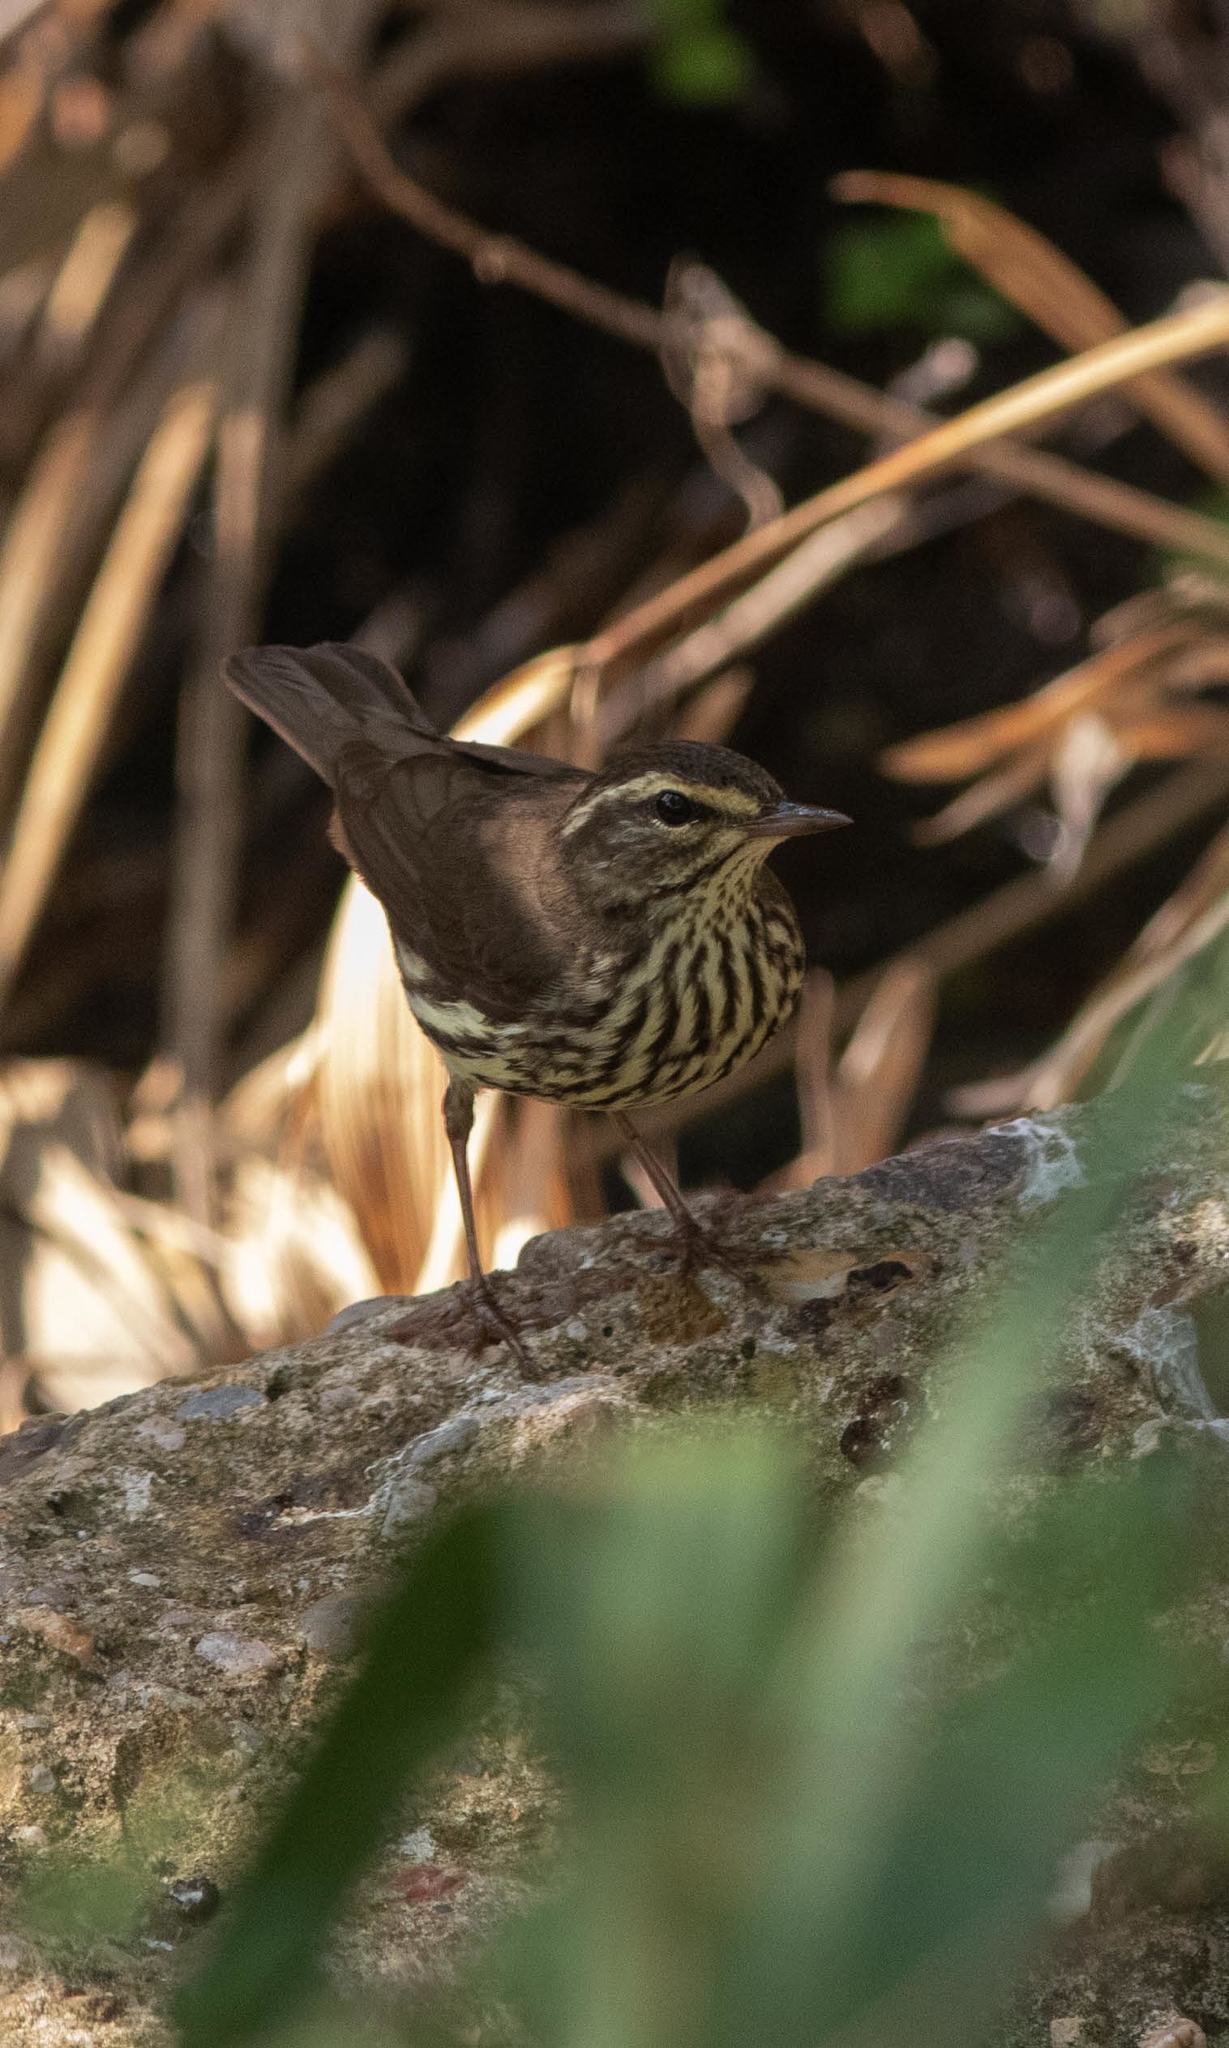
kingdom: Animalia
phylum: Chordata
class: Aves
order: Passeriformes
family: Parulidae
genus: Parkesia
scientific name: Parkesia noveboracensis
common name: Northern waterthrush
